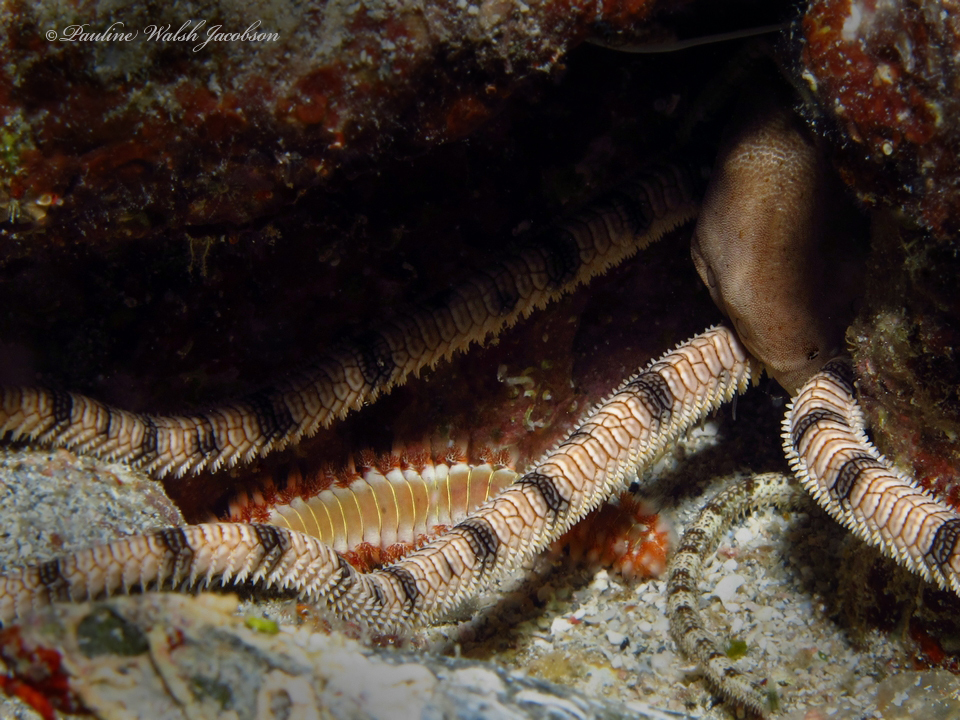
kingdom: Animalia
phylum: Annelida
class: Polychaeta
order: Amphinomida
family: Amphinomidae
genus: Hermodice
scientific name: Hermodice carunculata
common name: Bearded fireworm
